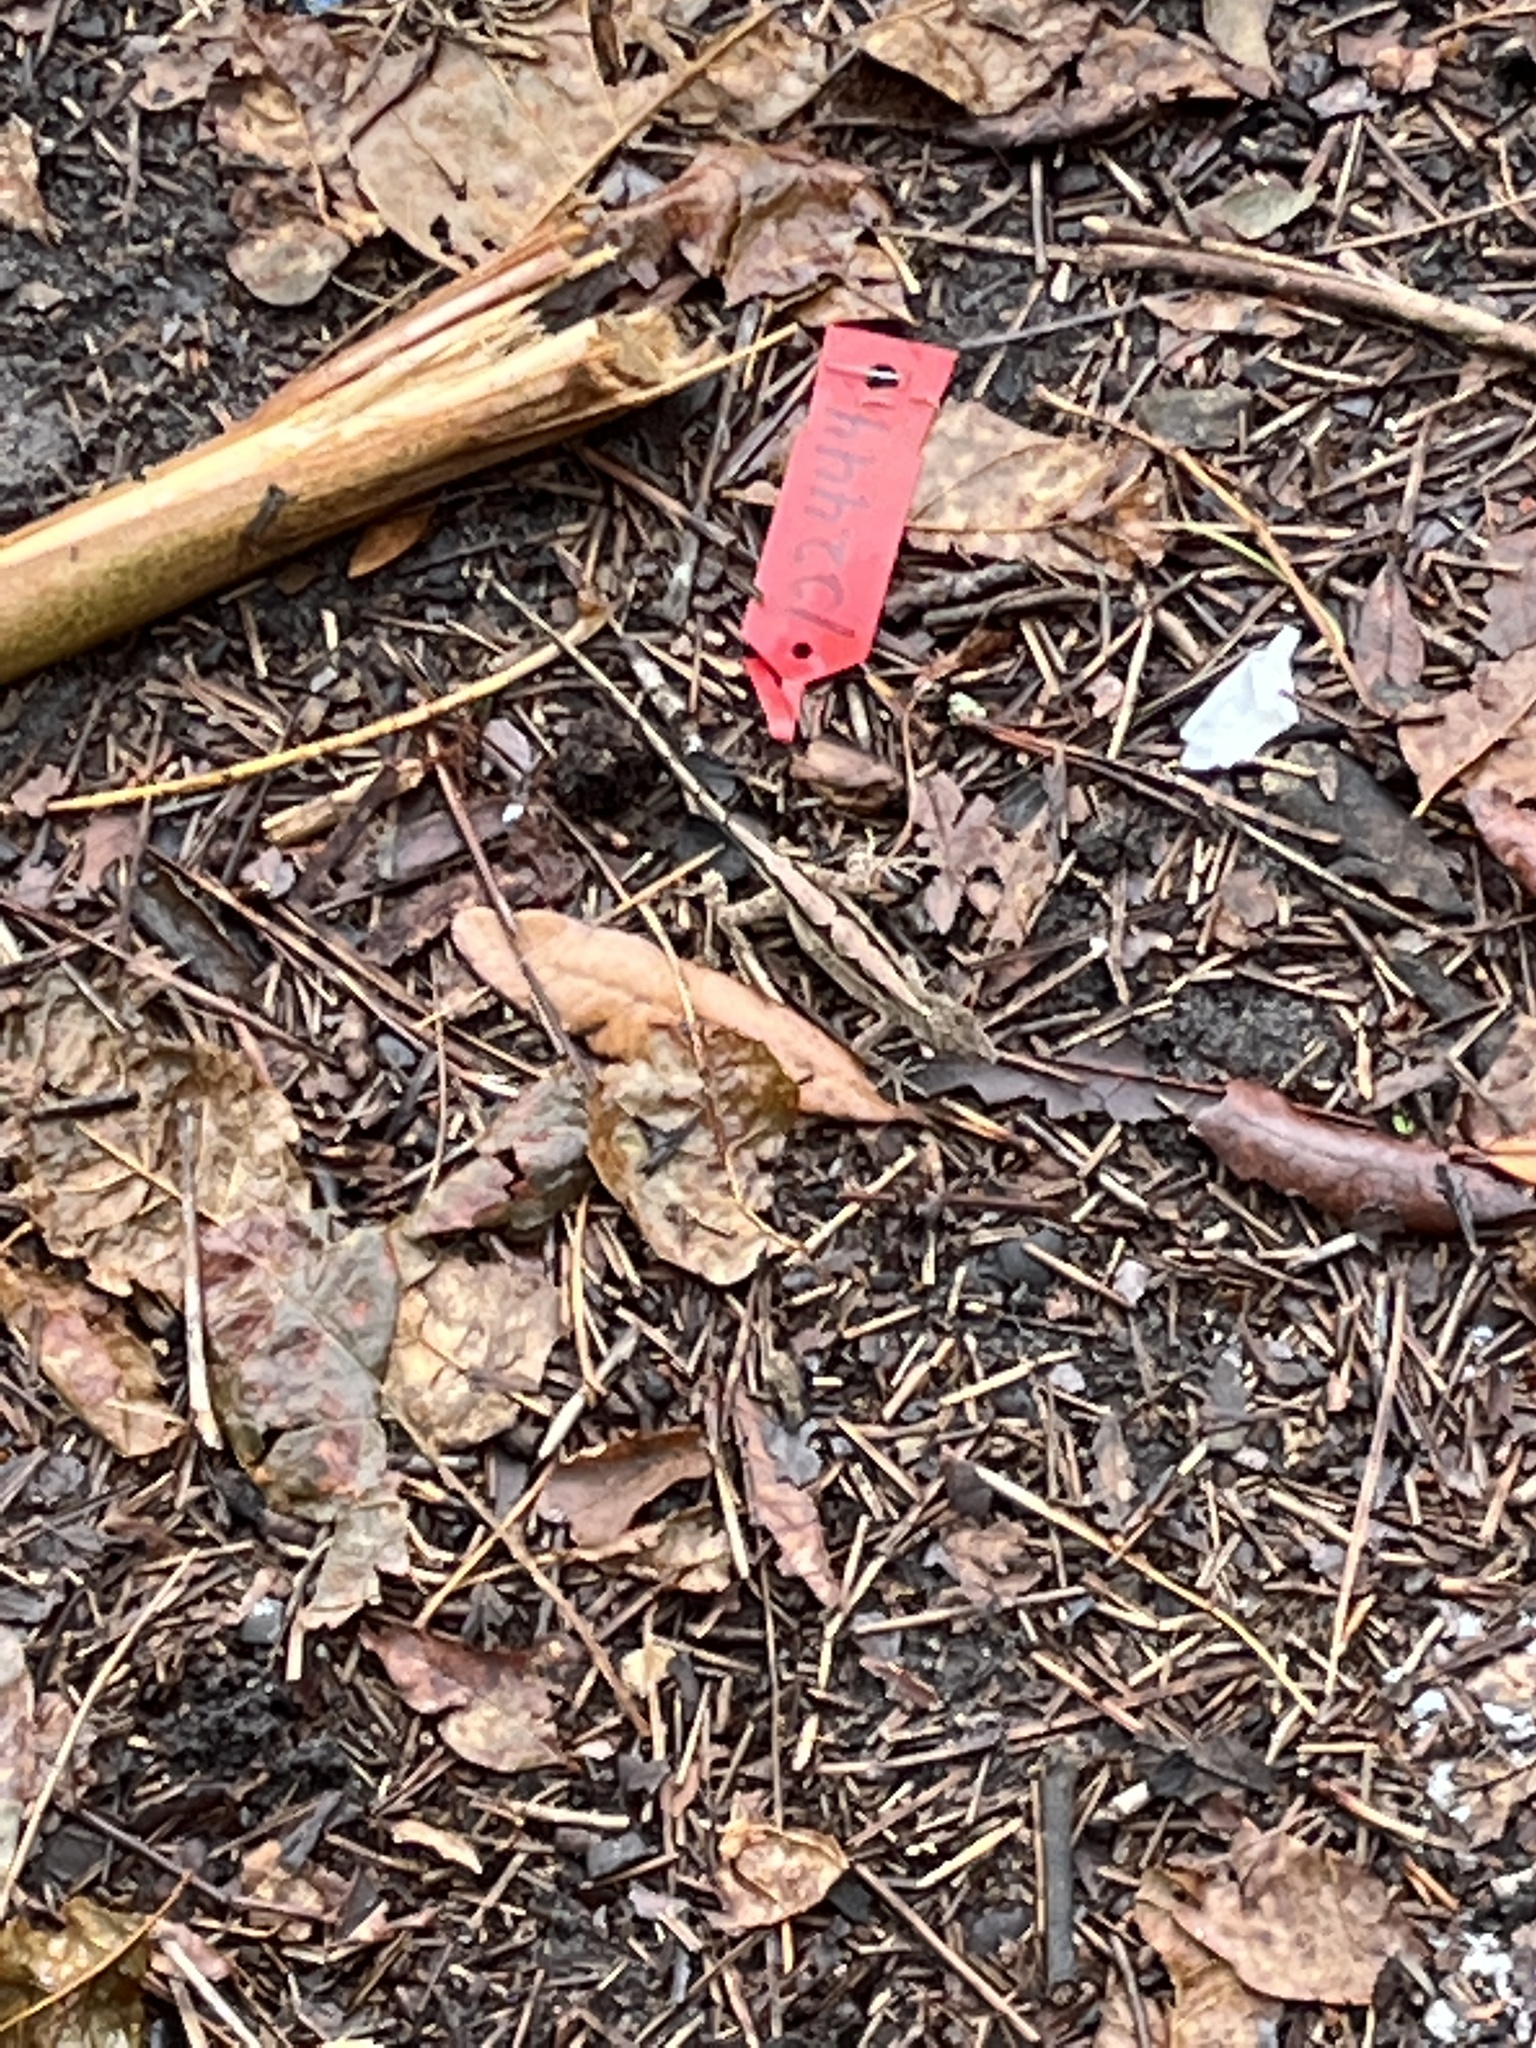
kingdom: Animalia
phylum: Chordata
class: Squamata
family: Dactyloidae
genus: Anolis
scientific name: Anolis sagrei
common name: Brown anole
